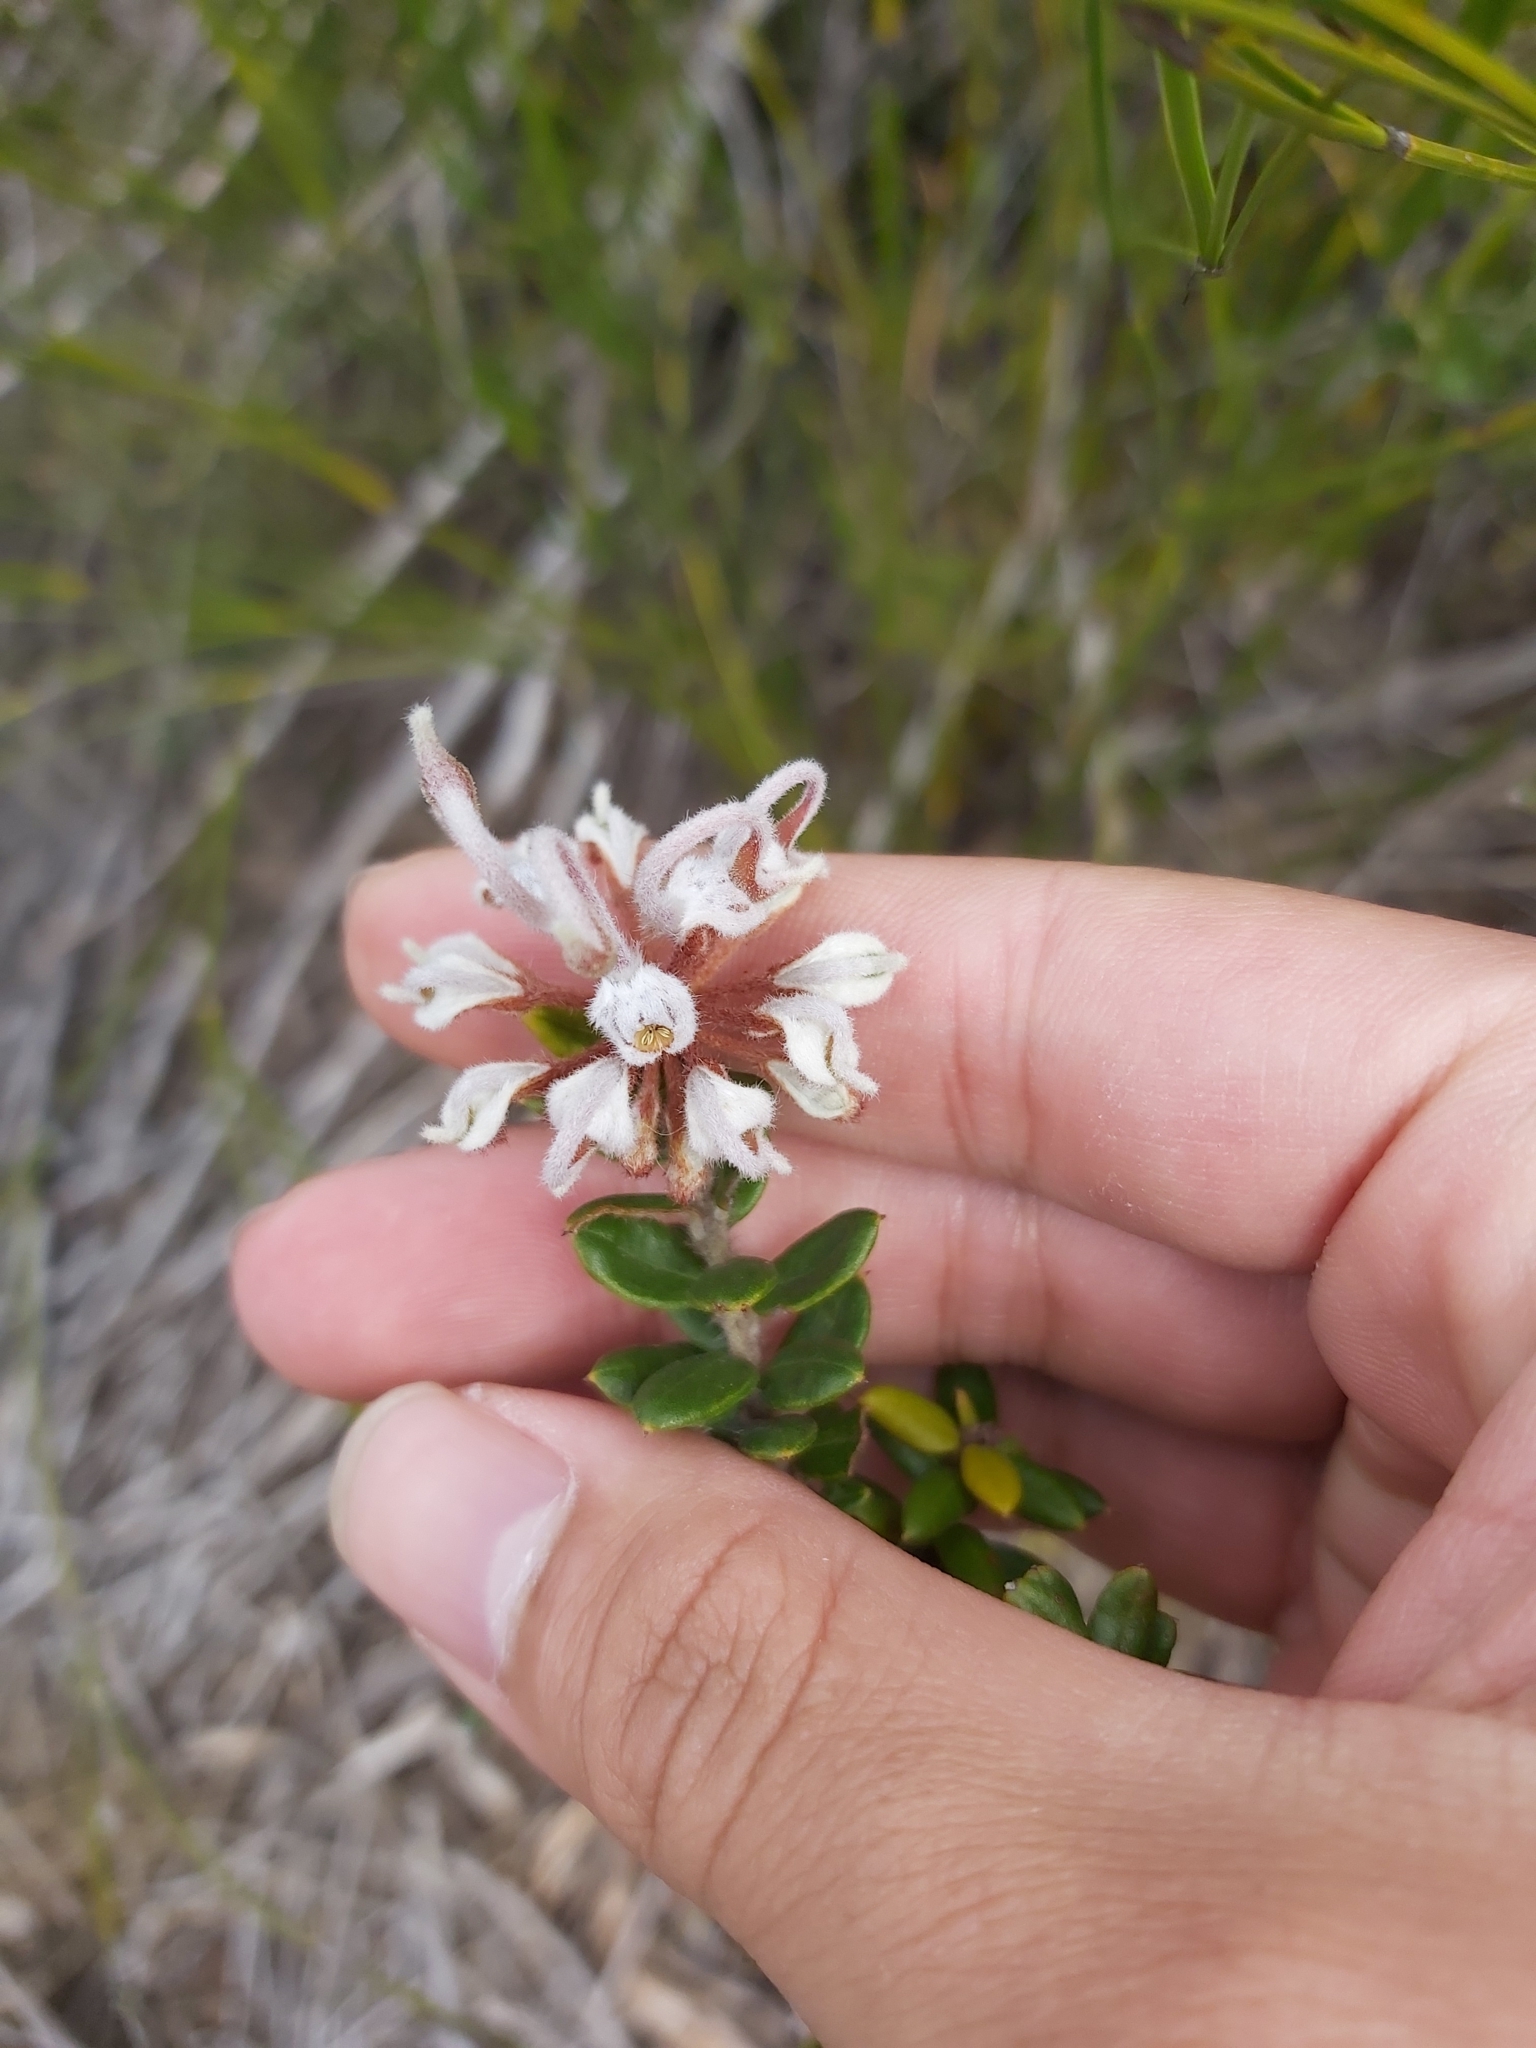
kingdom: Plantae
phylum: Tracheophyta
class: Magnoliopsida
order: Proteales
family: Proteaceae
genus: Grevillea
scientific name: Grevillea buxifolia
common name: Grey spiderflower
